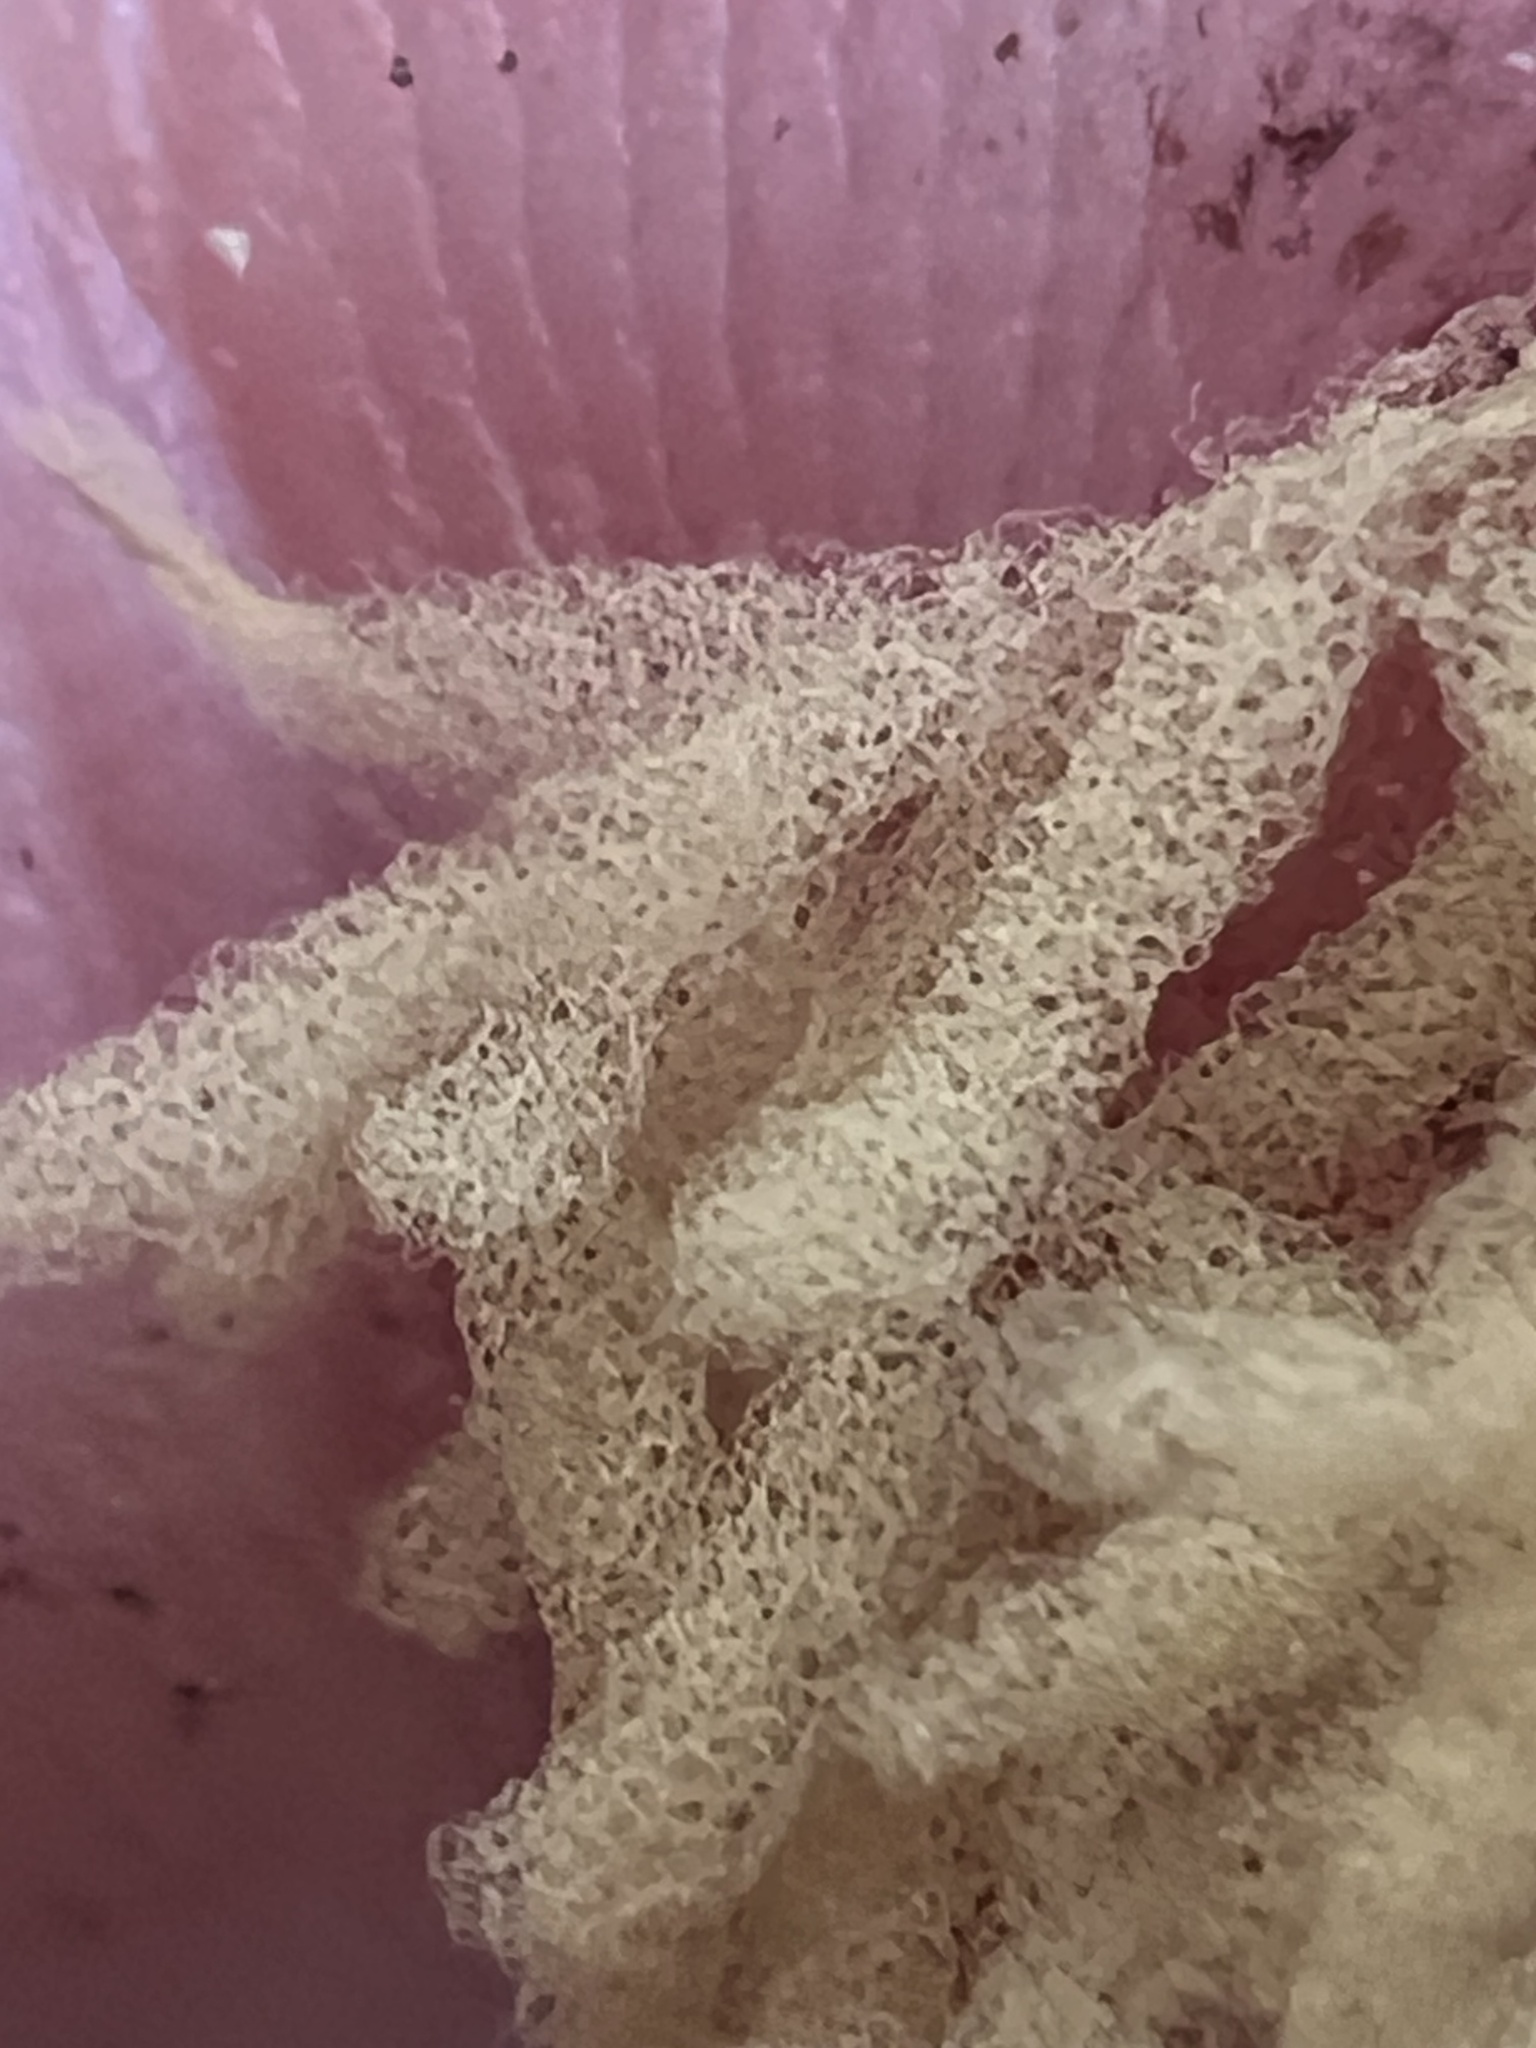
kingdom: Protozoa
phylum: Mycetozoa
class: Myxomycetes
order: Trichiales
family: Arcyriaceae
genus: Arcyria
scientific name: Arcyria obvelata
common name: Yellow carnival candy slime
